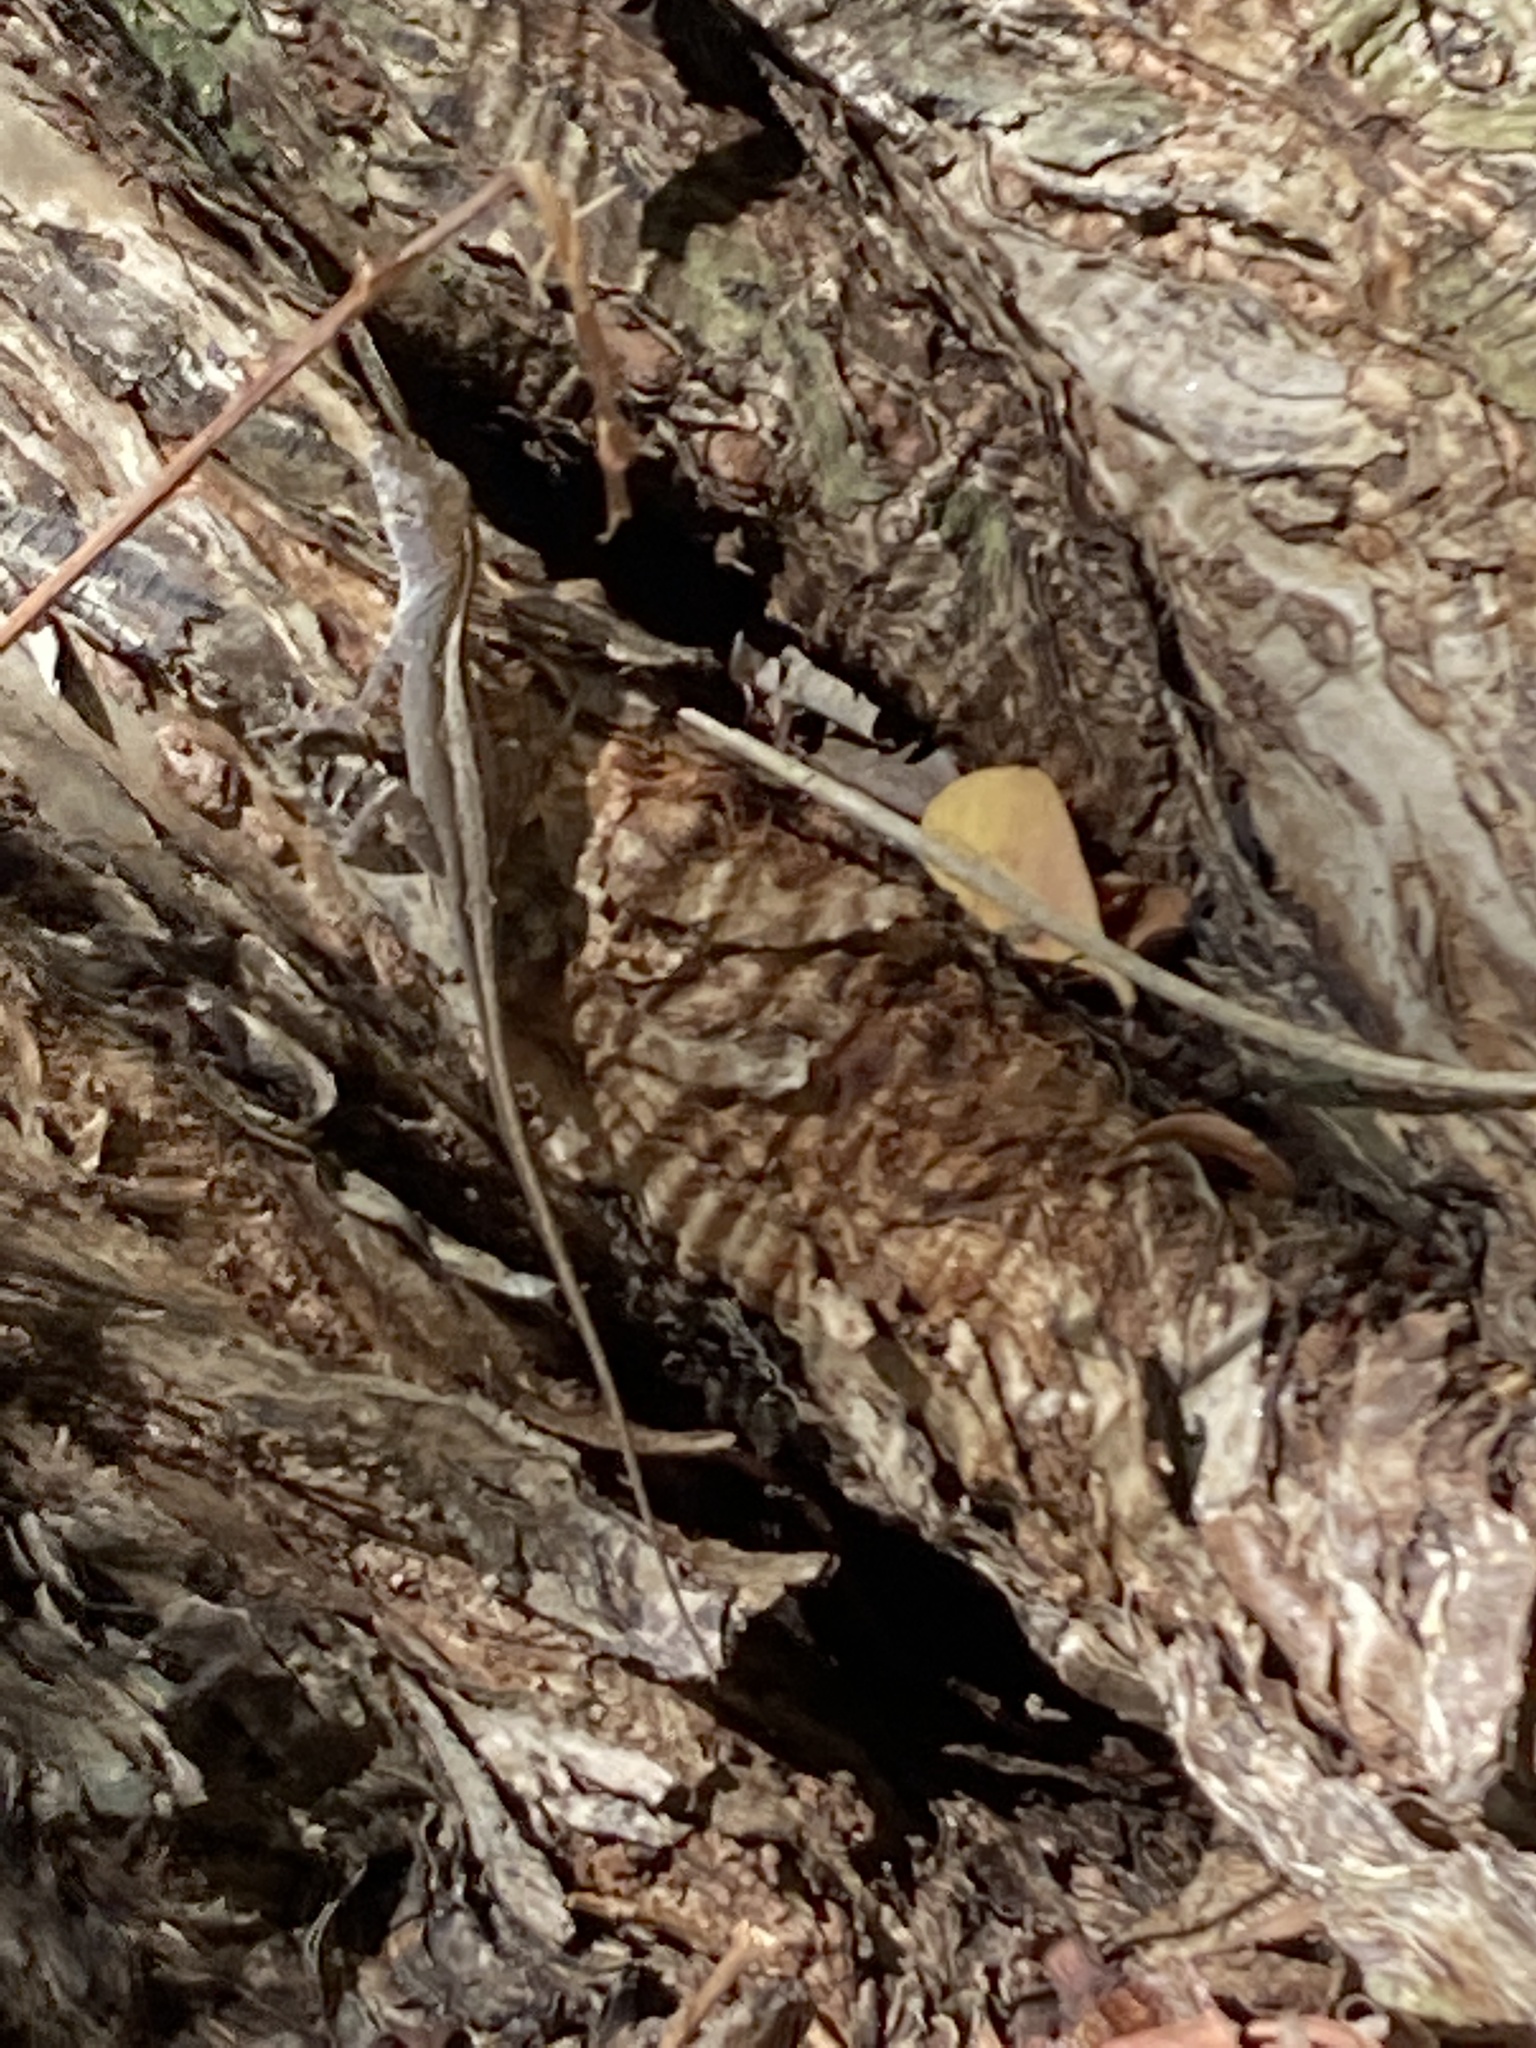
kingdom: Animalia
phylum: Chordata
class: Squamata
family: Dactyloidae
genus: Anolis
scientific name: Anolis sagrei
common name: Brown anole
